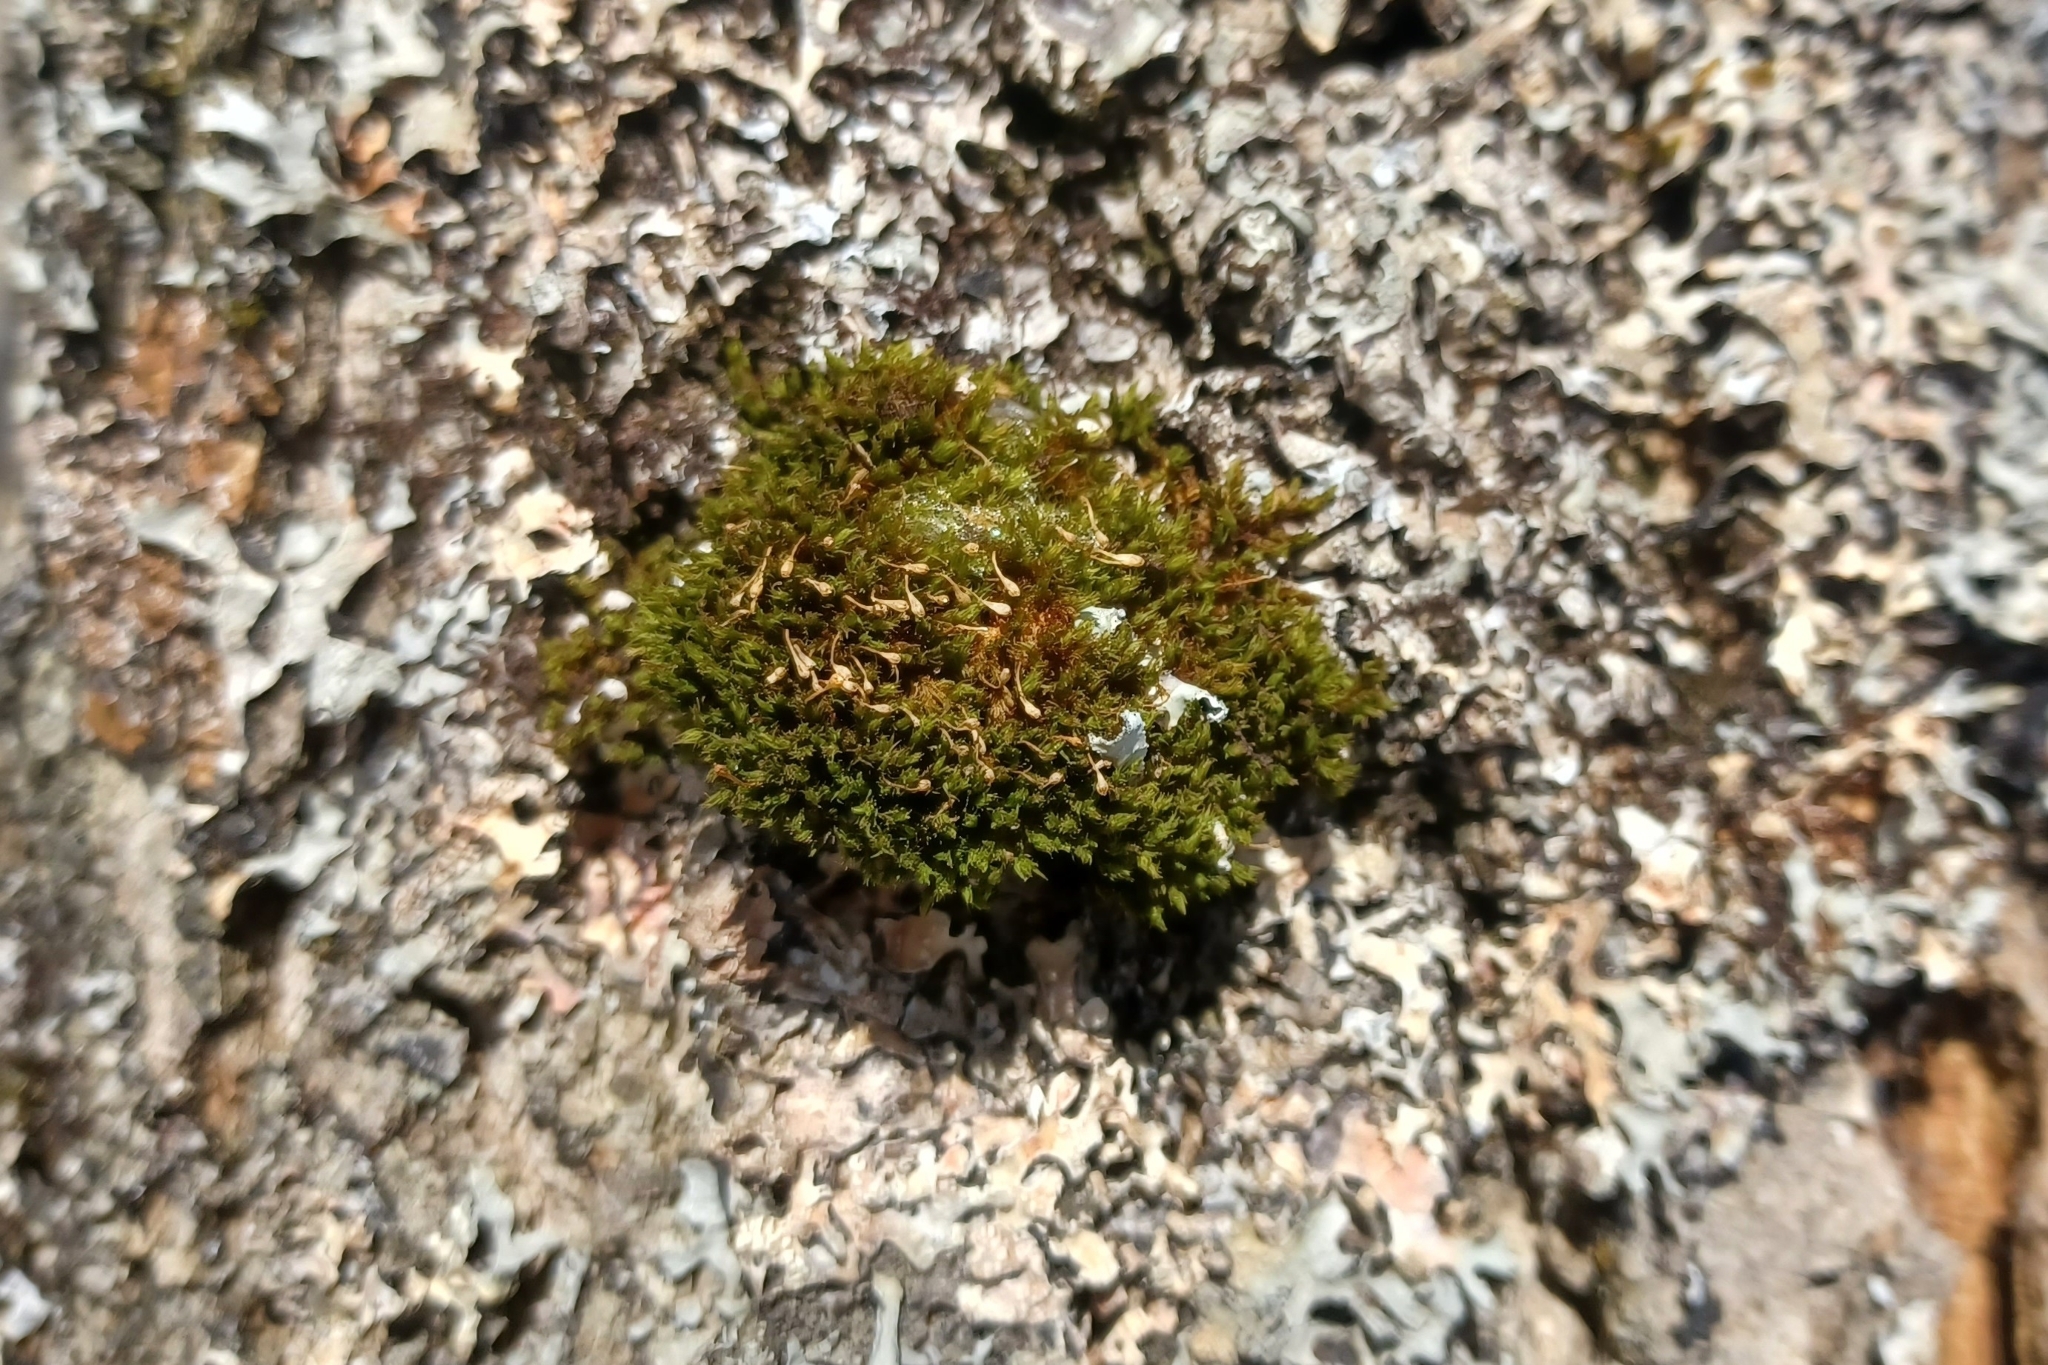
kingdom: Plantae
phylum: Bryophyta
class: Bryopsida
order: Orthotrichales
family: Orthotrichaceae
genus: Ulota
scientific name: Ulota coarctata
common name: Club pincushion moss
